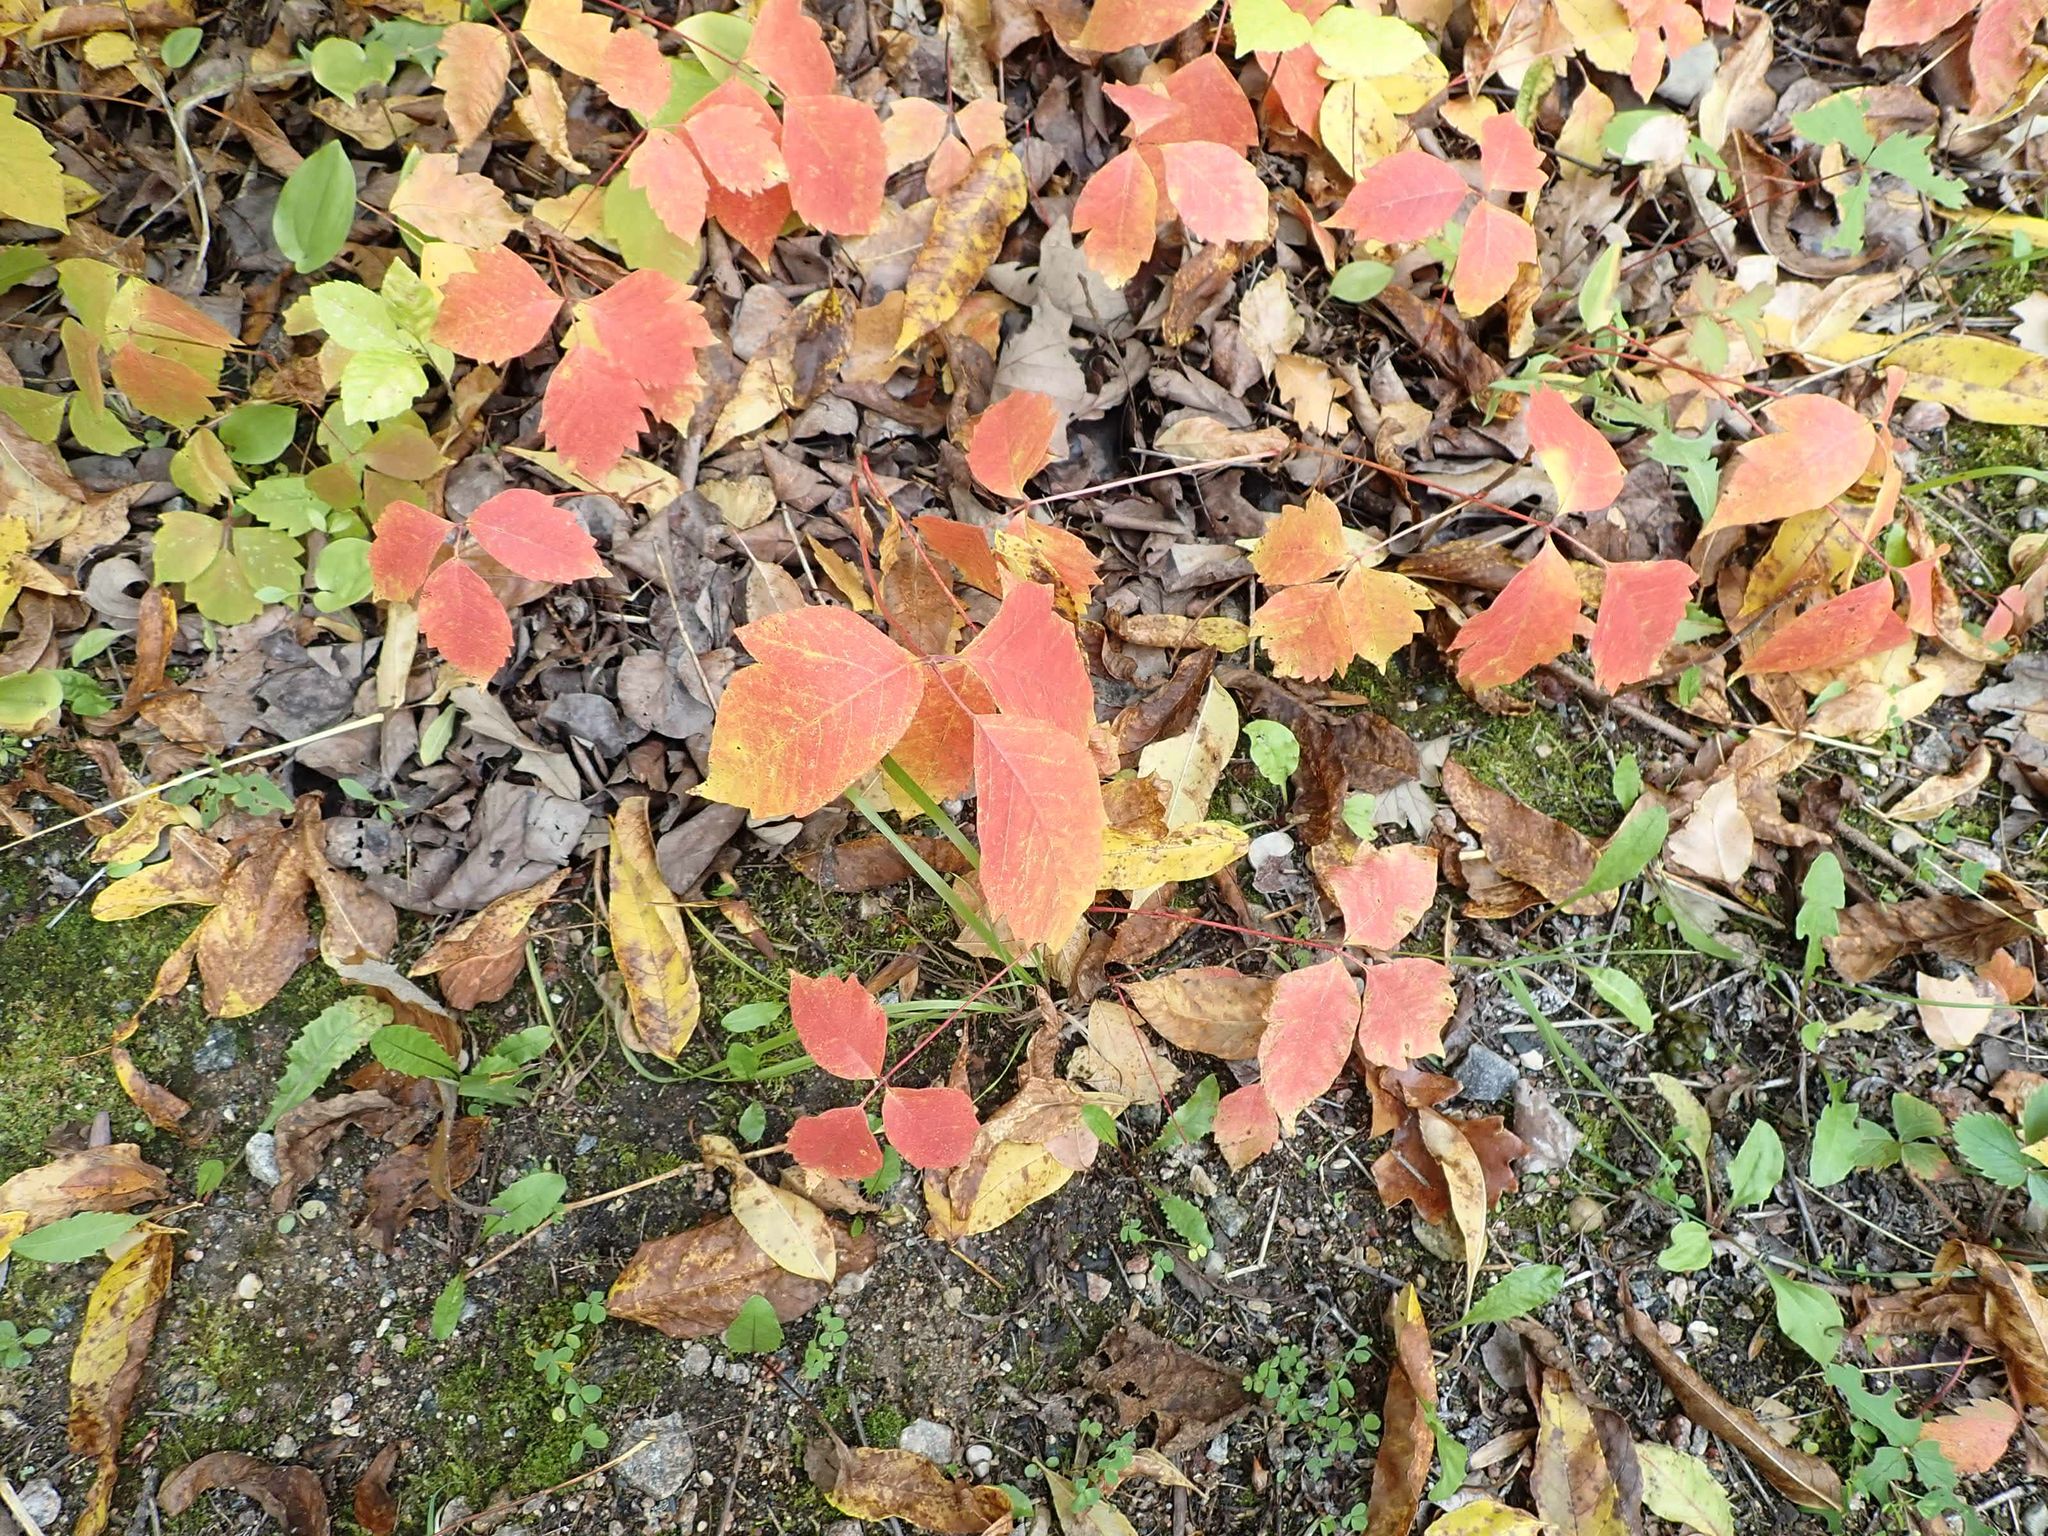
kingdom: Plantae
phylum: Tracheophyta
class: Magnoliopsida
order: Sapindales
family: Anacardiaceae
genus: Toxicodendron
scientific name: Toxicodendron rydbergii
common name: Rydberg's poison-ivy
